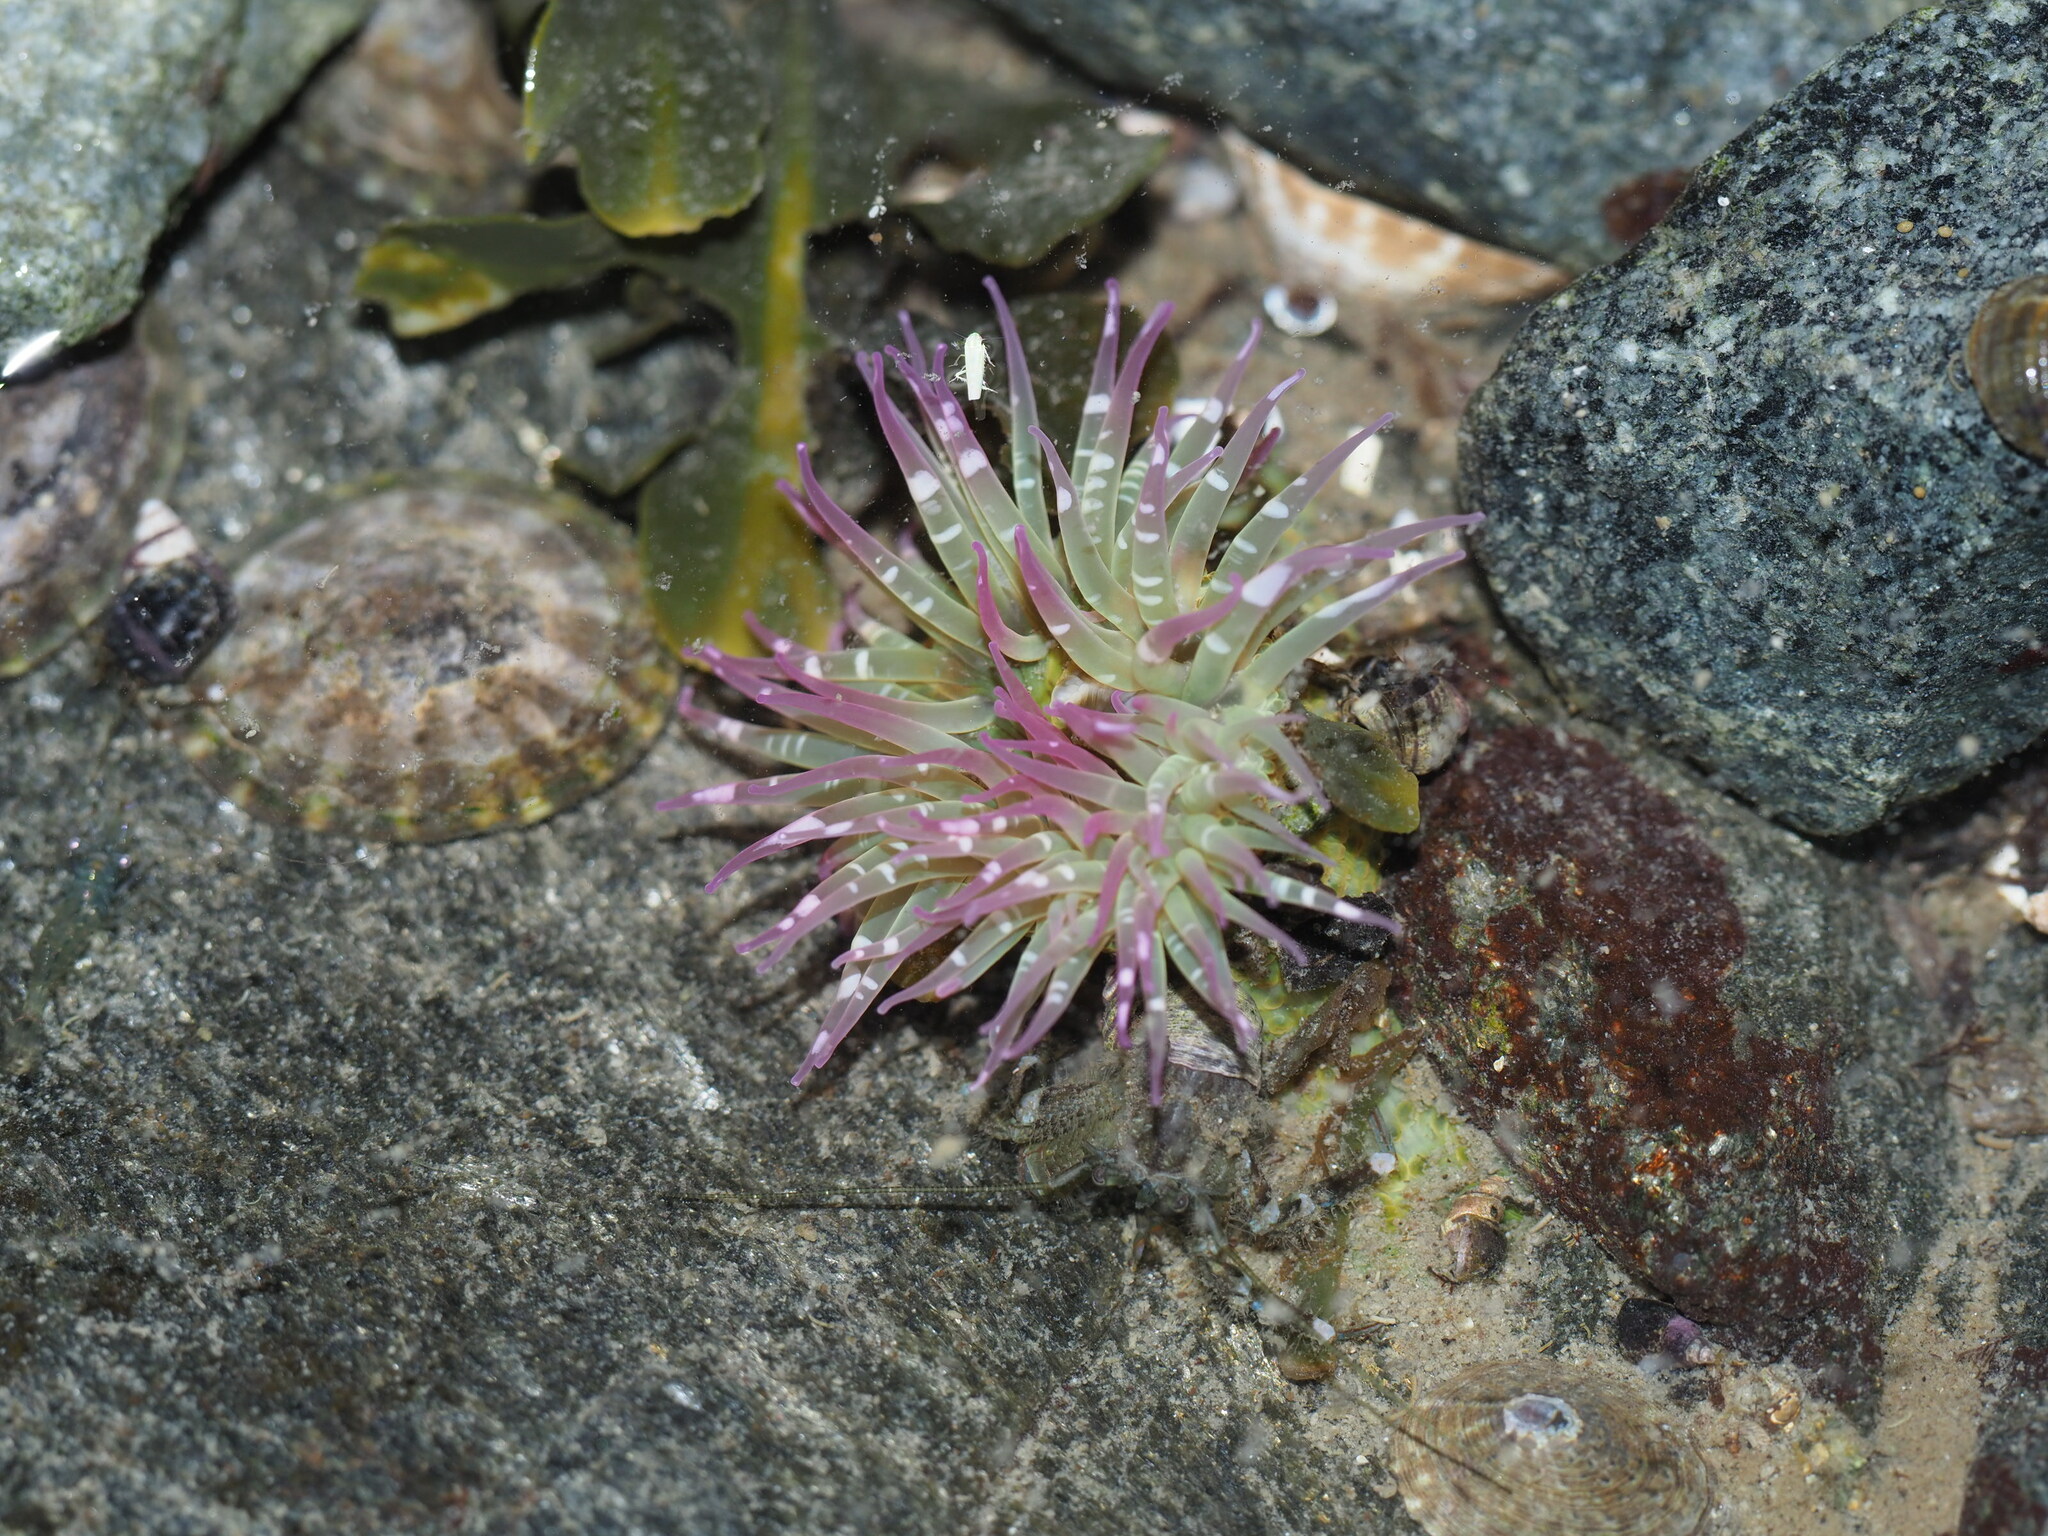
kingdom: Animalia
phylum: Cnidaria
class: Anthozoa
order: Actiniaria
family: Actiniidae
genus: Anthopleura
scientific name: Anthopleura elegantissima
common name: Clonal anemone
